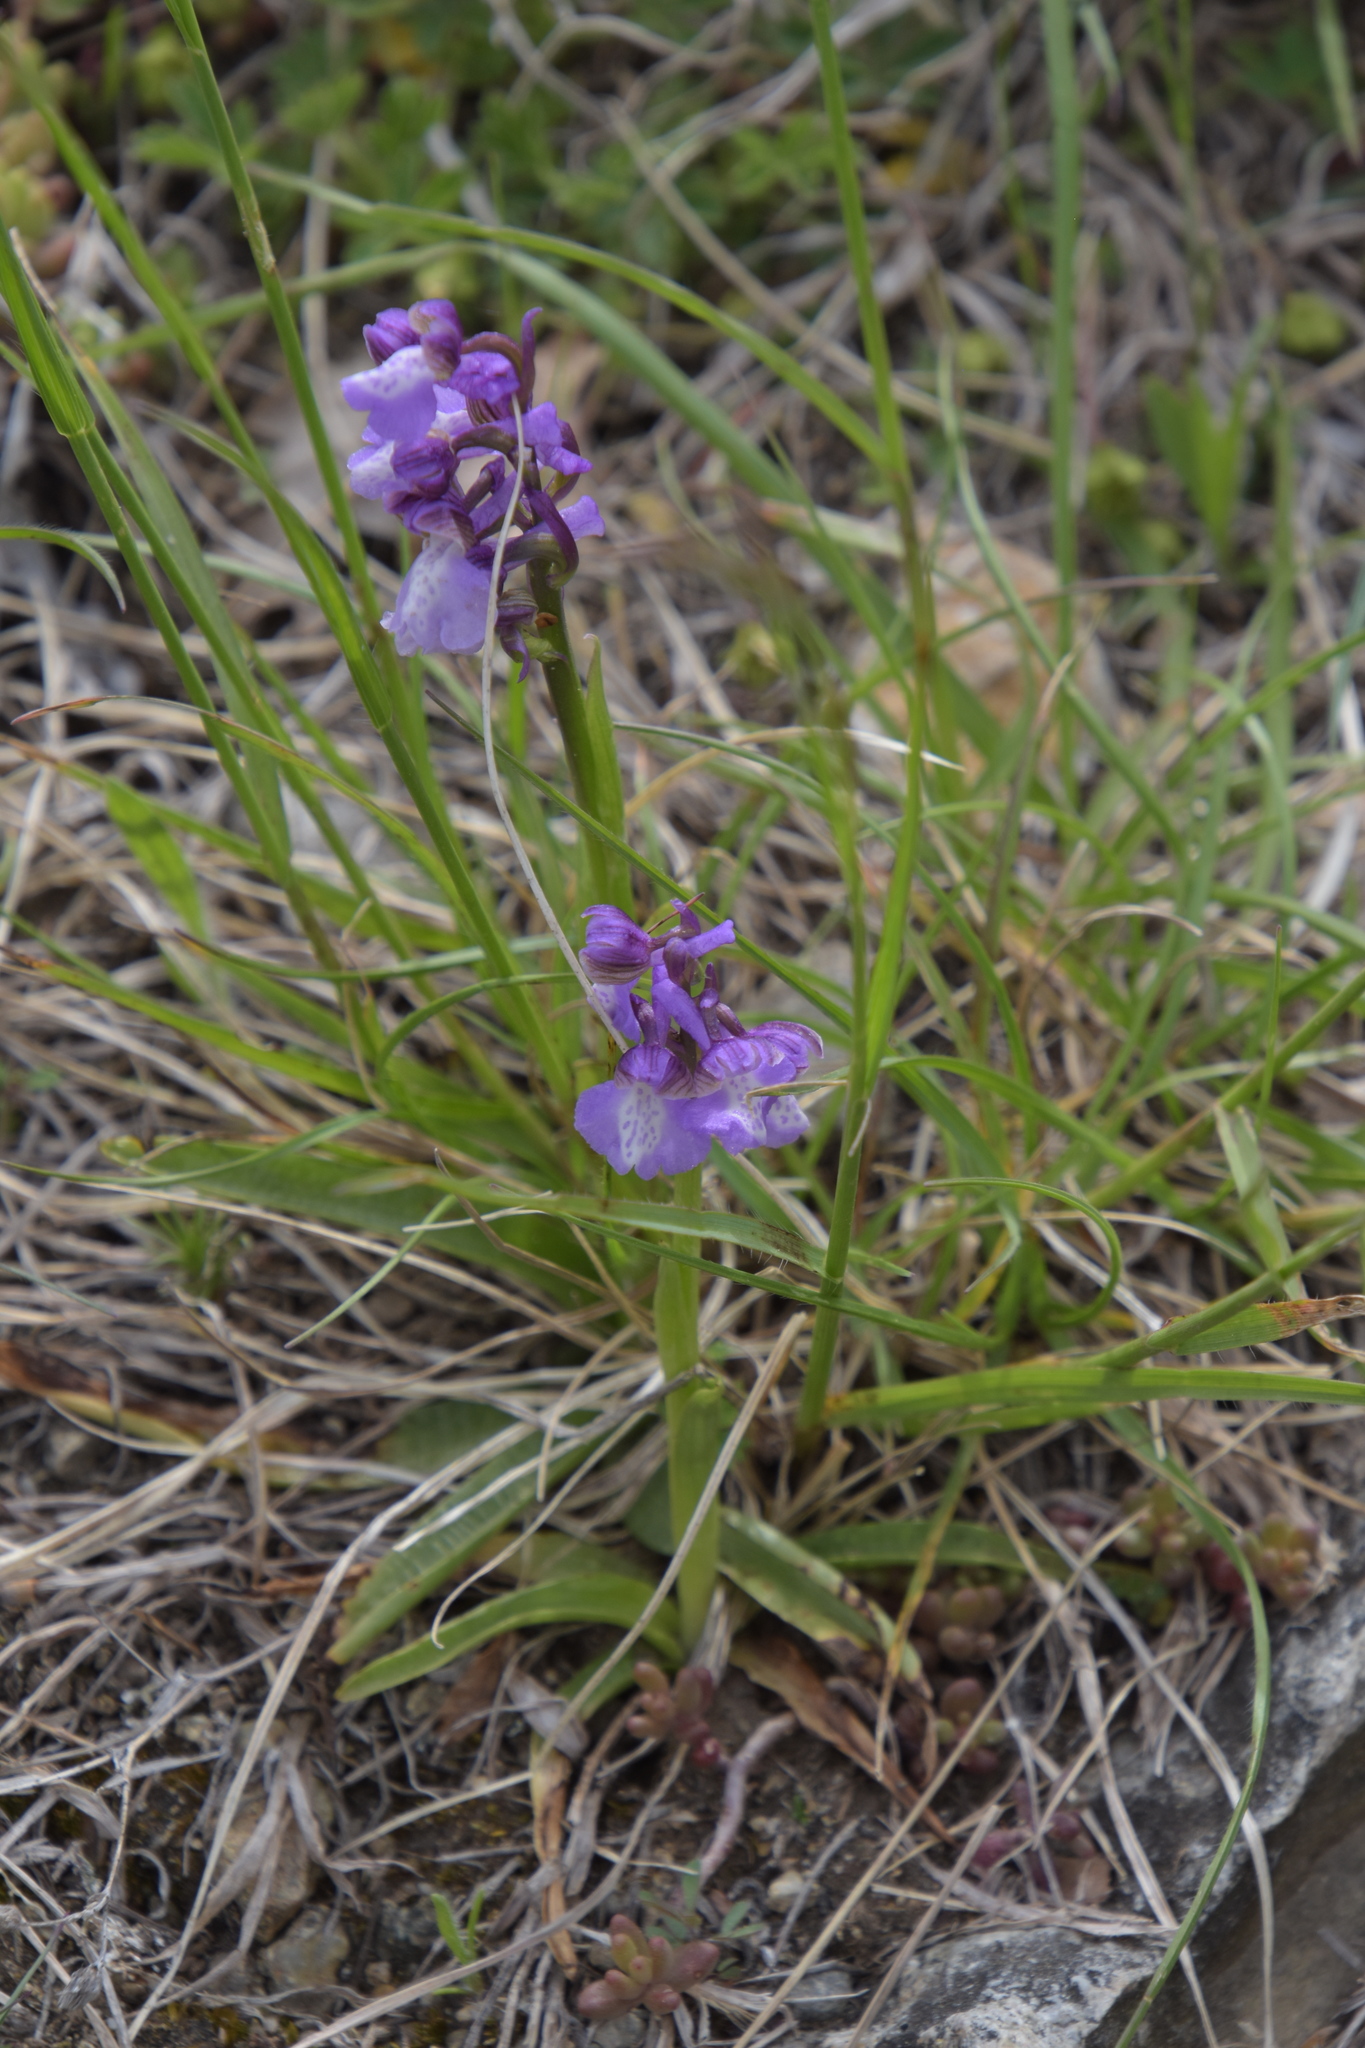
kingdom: Plantae
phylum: Tracheophyta
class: Liliopsida
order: Asparagales
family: Orchidaceae
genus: Anacamptis
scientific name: Anacamptis morio
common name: Green-winged orchid
